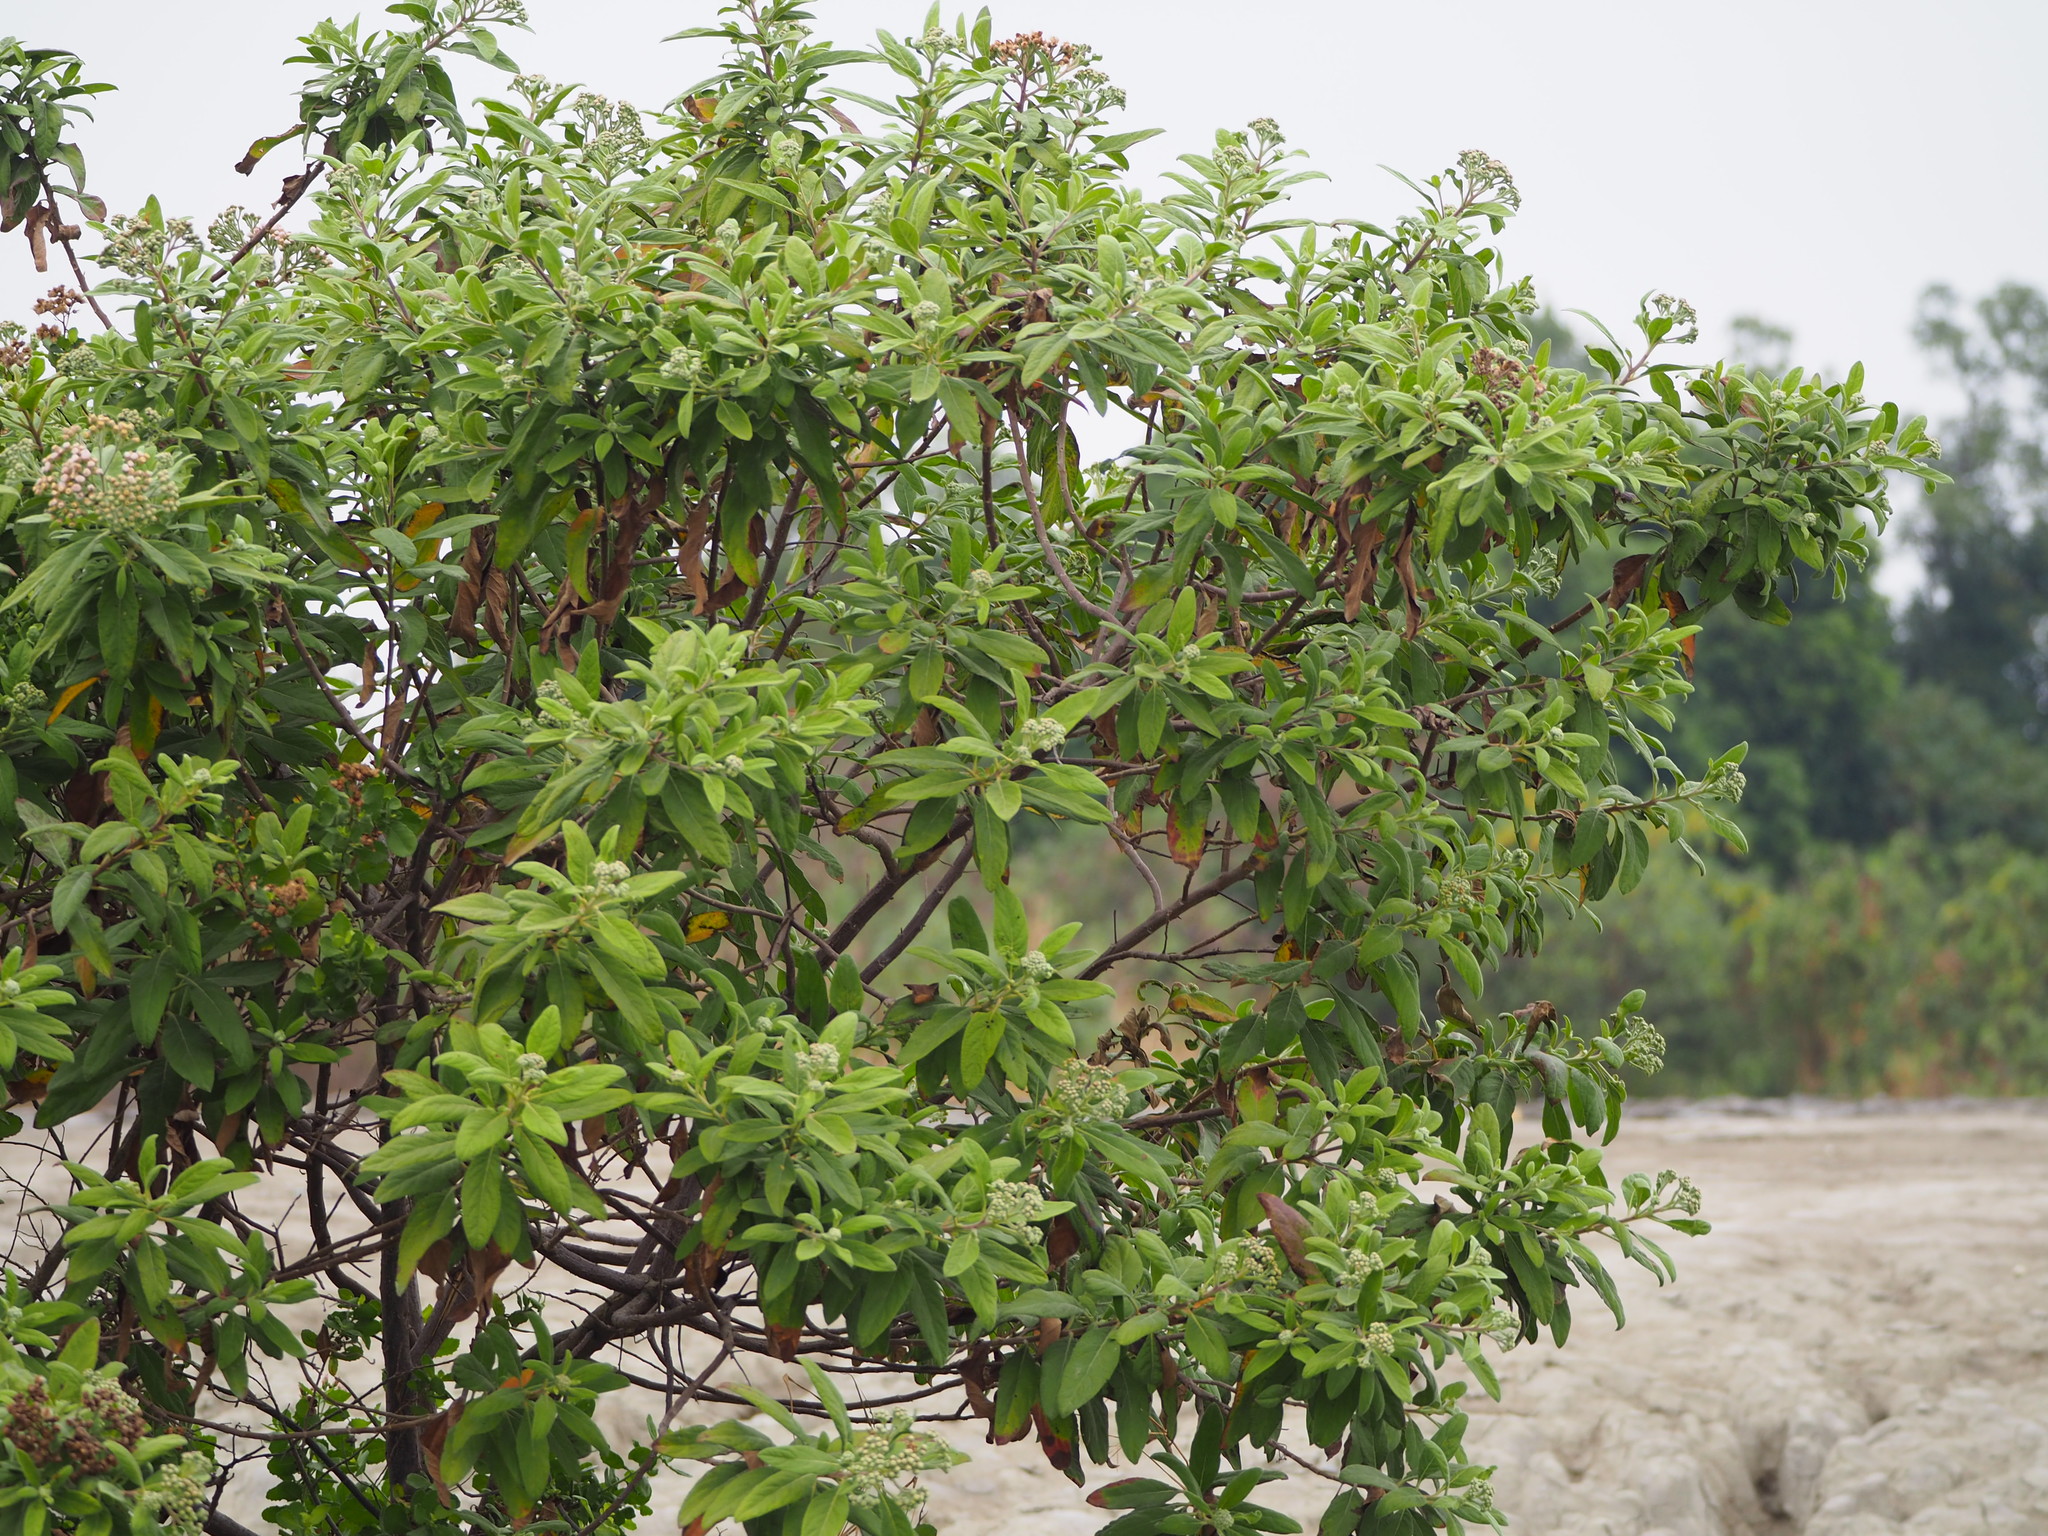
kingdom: Plantae
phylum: Tracheophyta
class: Magnoliopsida
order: Asterales
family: Asteraceae
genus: Pluchea
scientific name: Pluchea carolinensis
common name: Marsh fleabane
